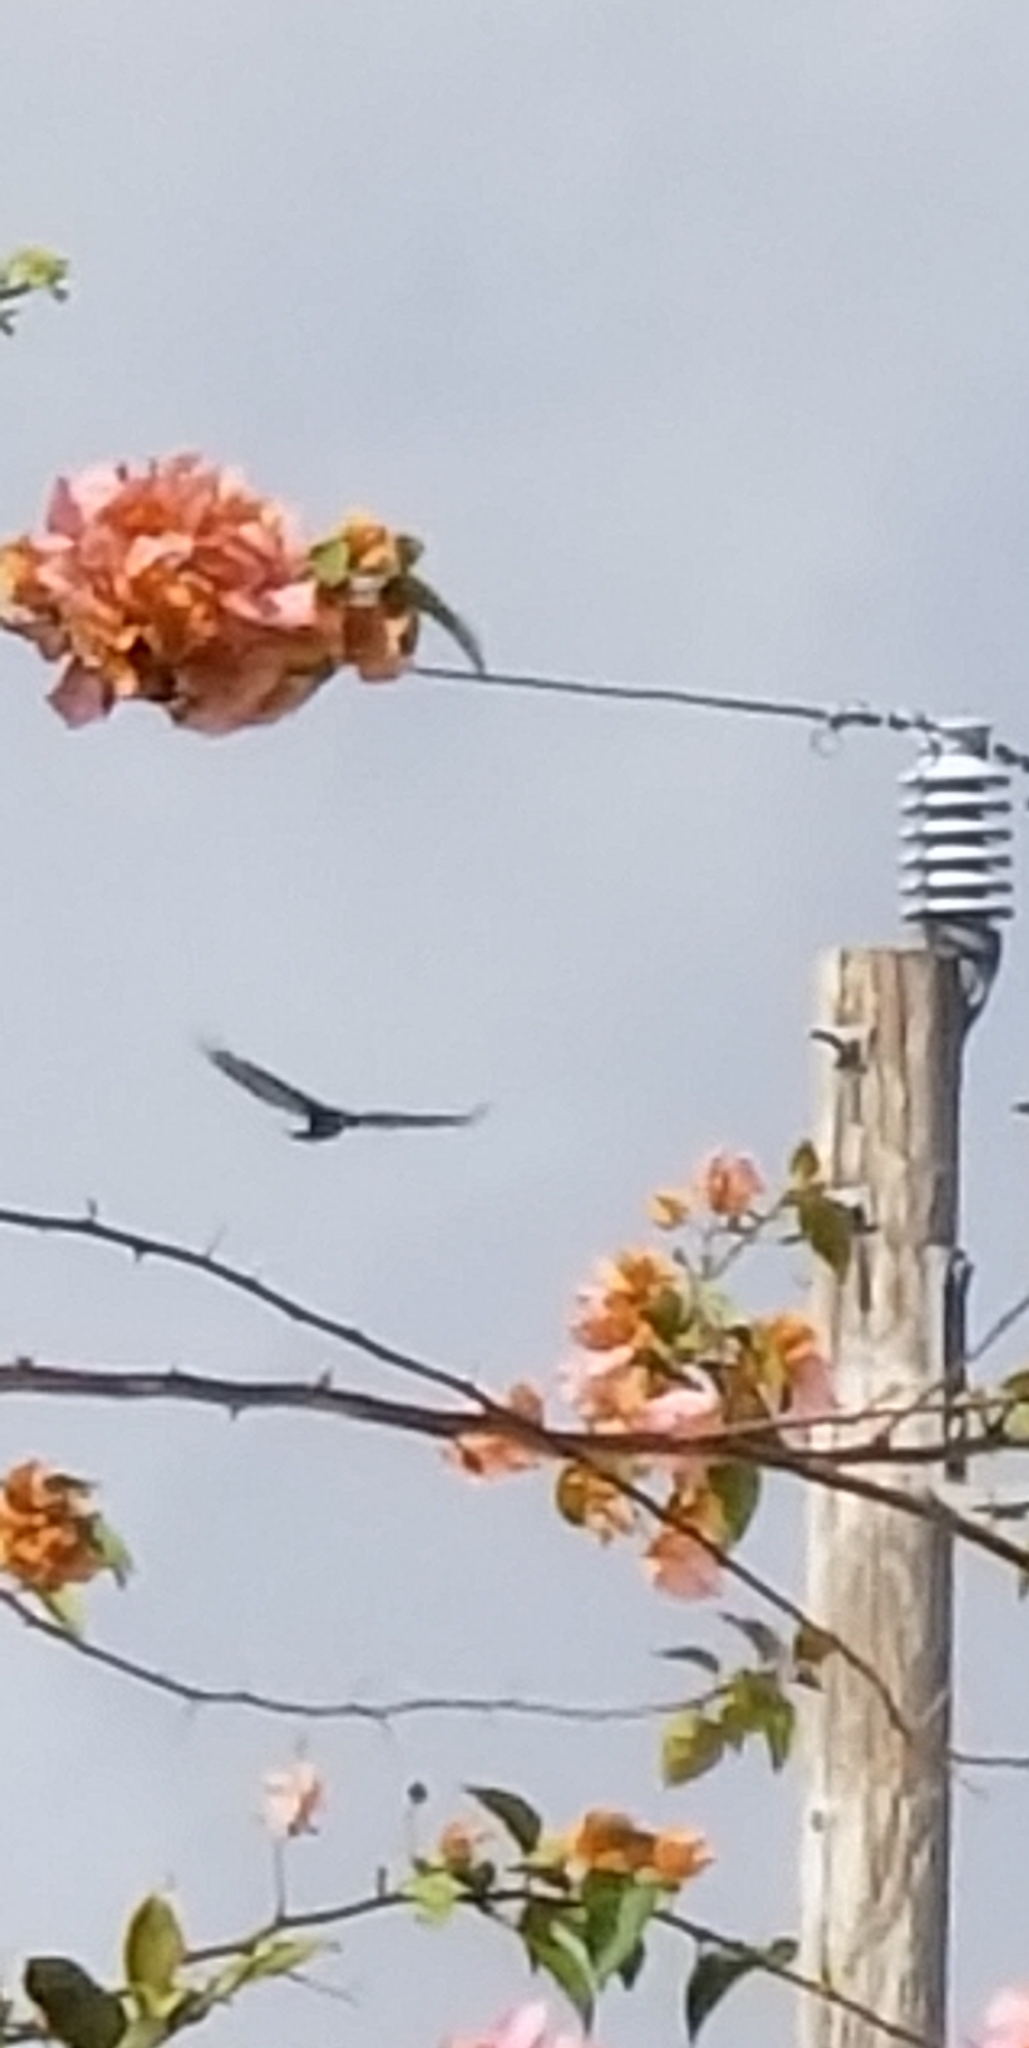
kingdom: Animalia
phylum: Chordata
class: Aves
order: Accipitriformes
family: Cathartidae
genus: Cathartes
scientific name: Cathartes aura
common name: Turkey vulture
